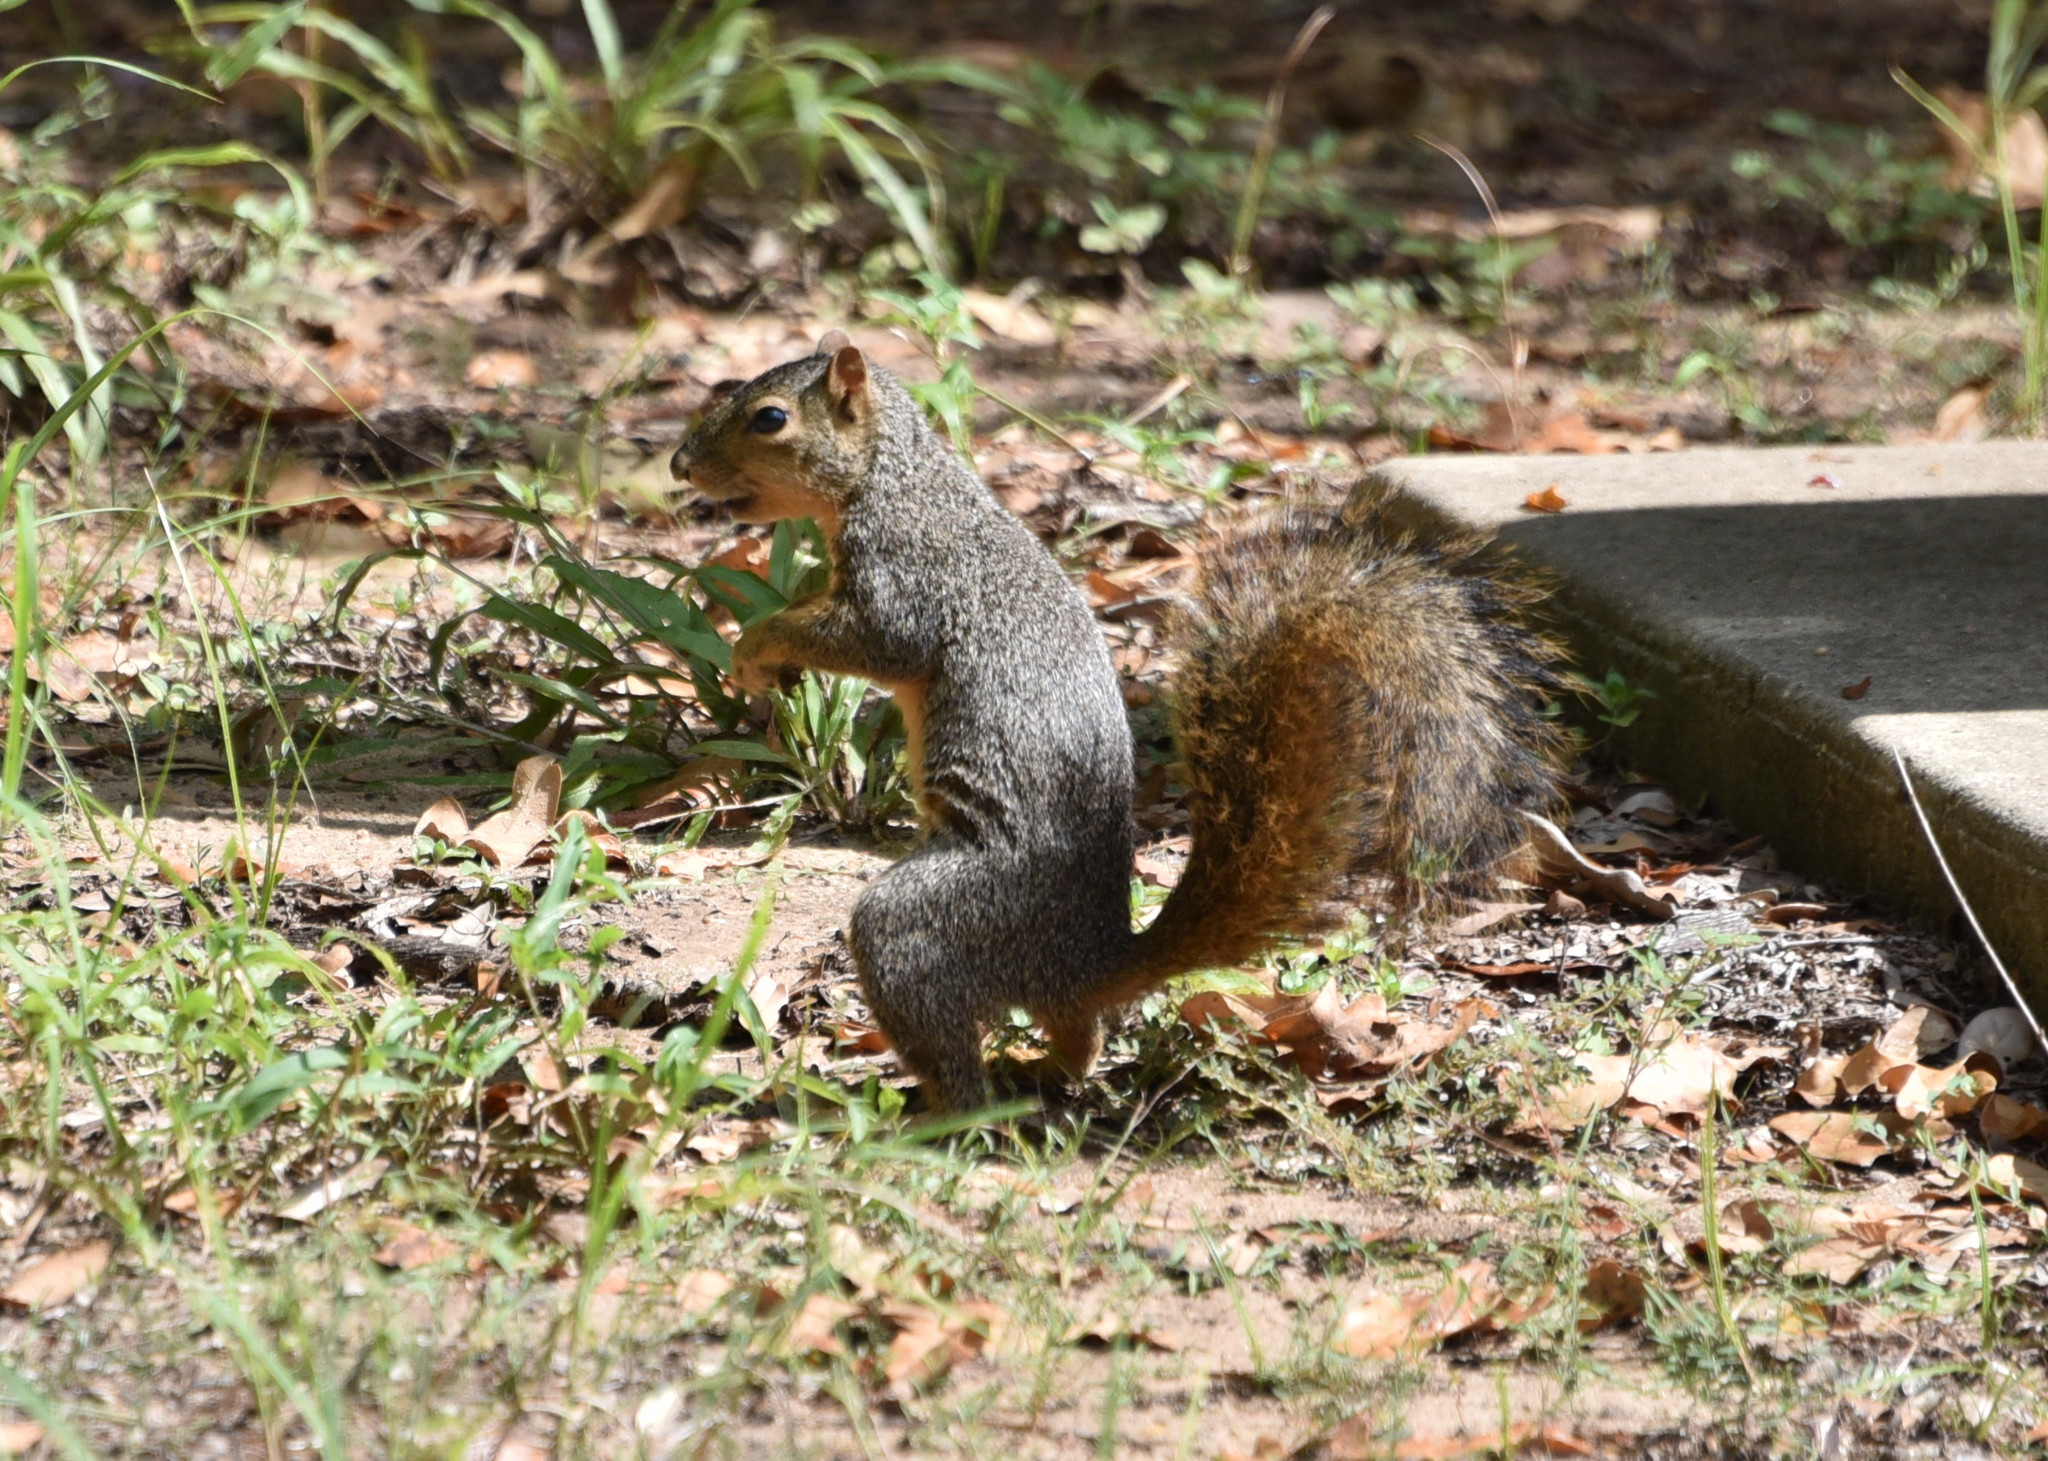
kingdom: Animalia
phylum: Chordata
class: Mammalia
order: Rodentia
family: Sciuridae
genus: Sciurus
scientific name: Sciurus niger
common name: Fox squirrel
